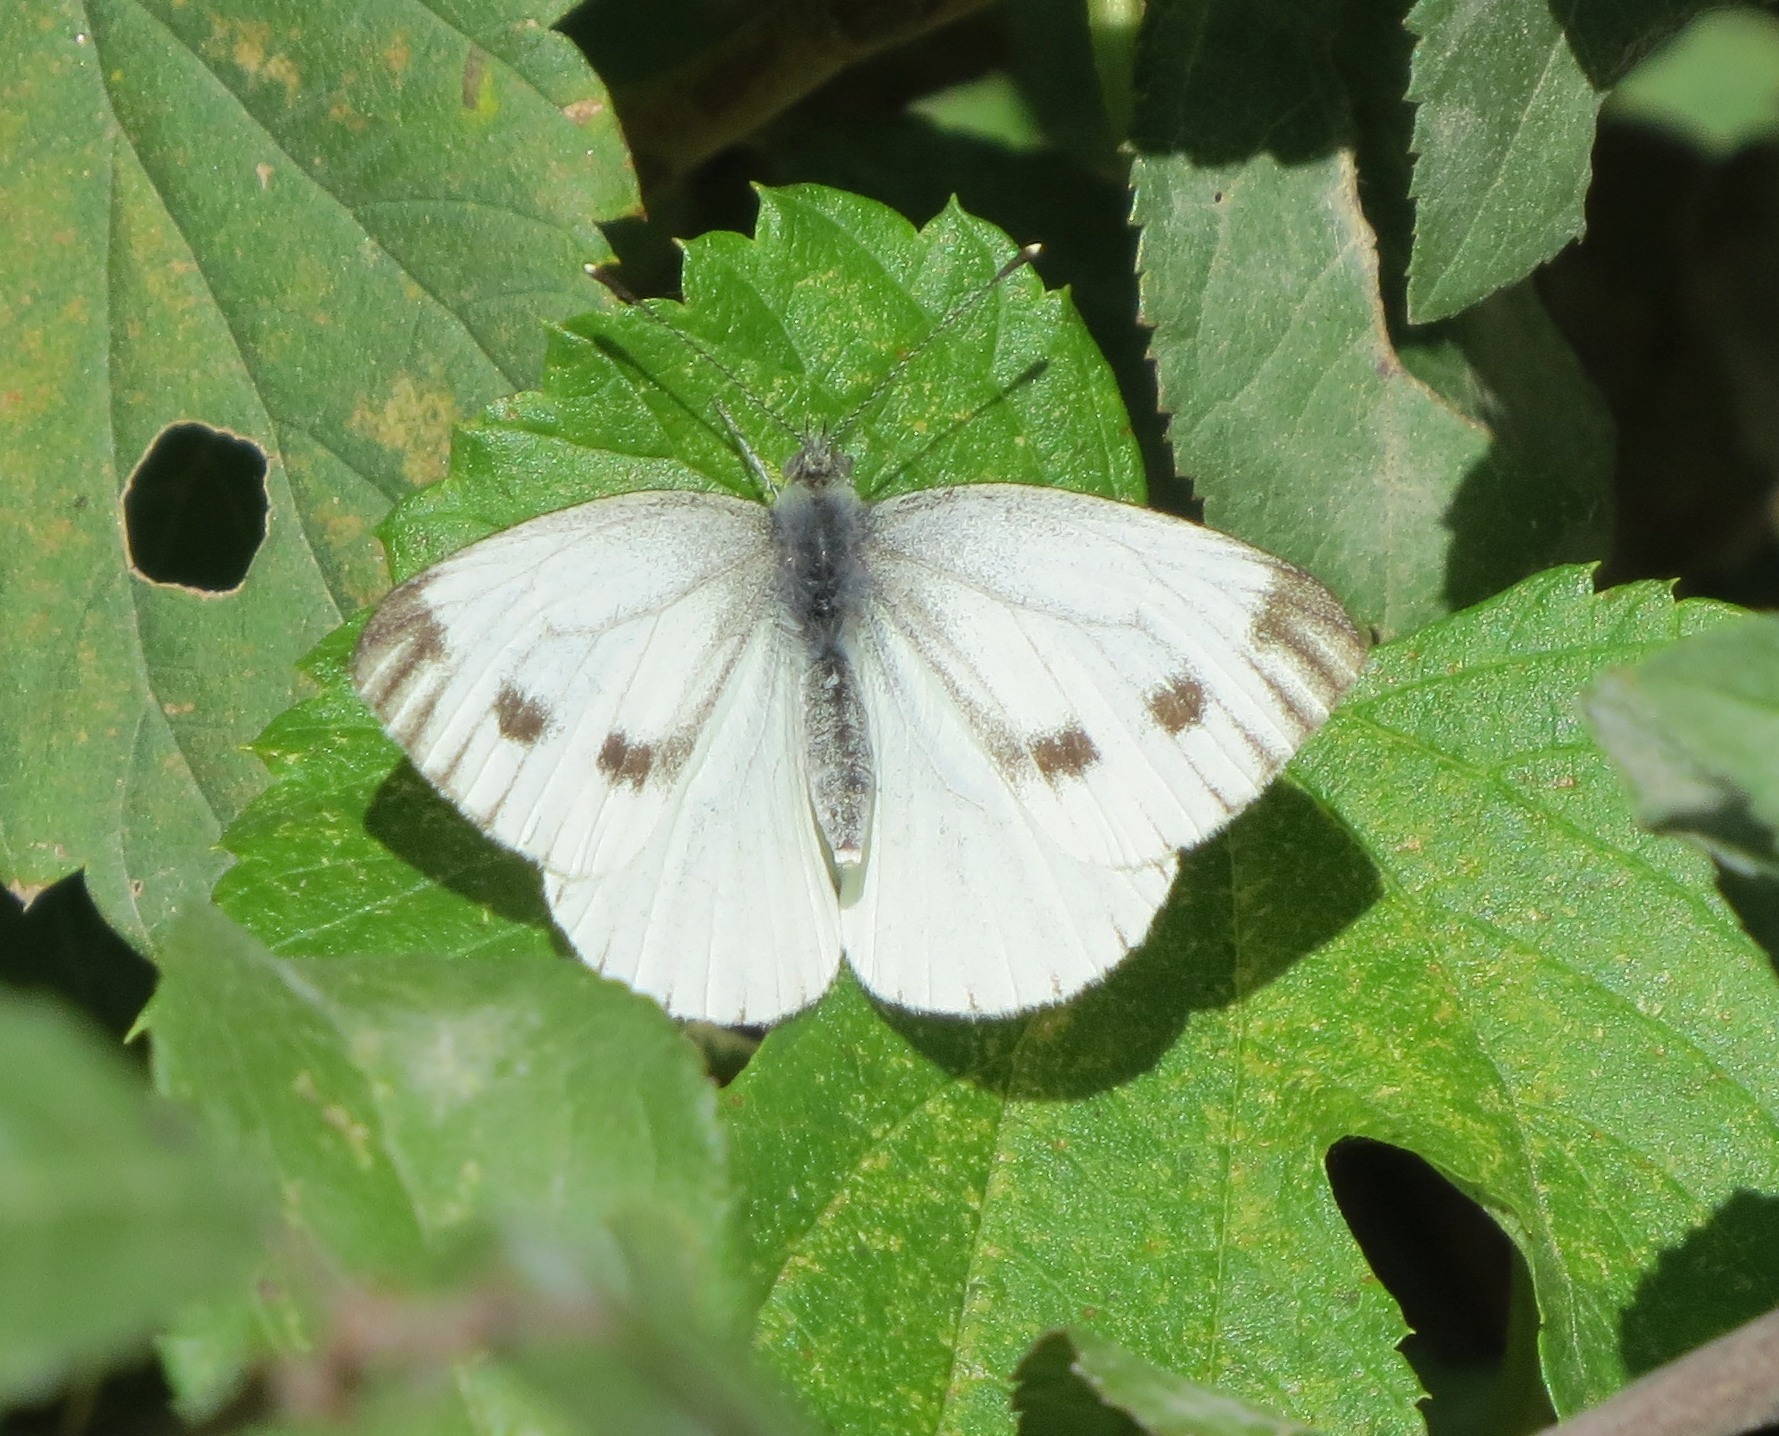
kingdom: Animalia
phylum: Arthropoda
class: Insecta
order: Lepidoptera
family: Pieridae
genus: Pieris
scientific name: Pieris napi
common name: Green-veined white
